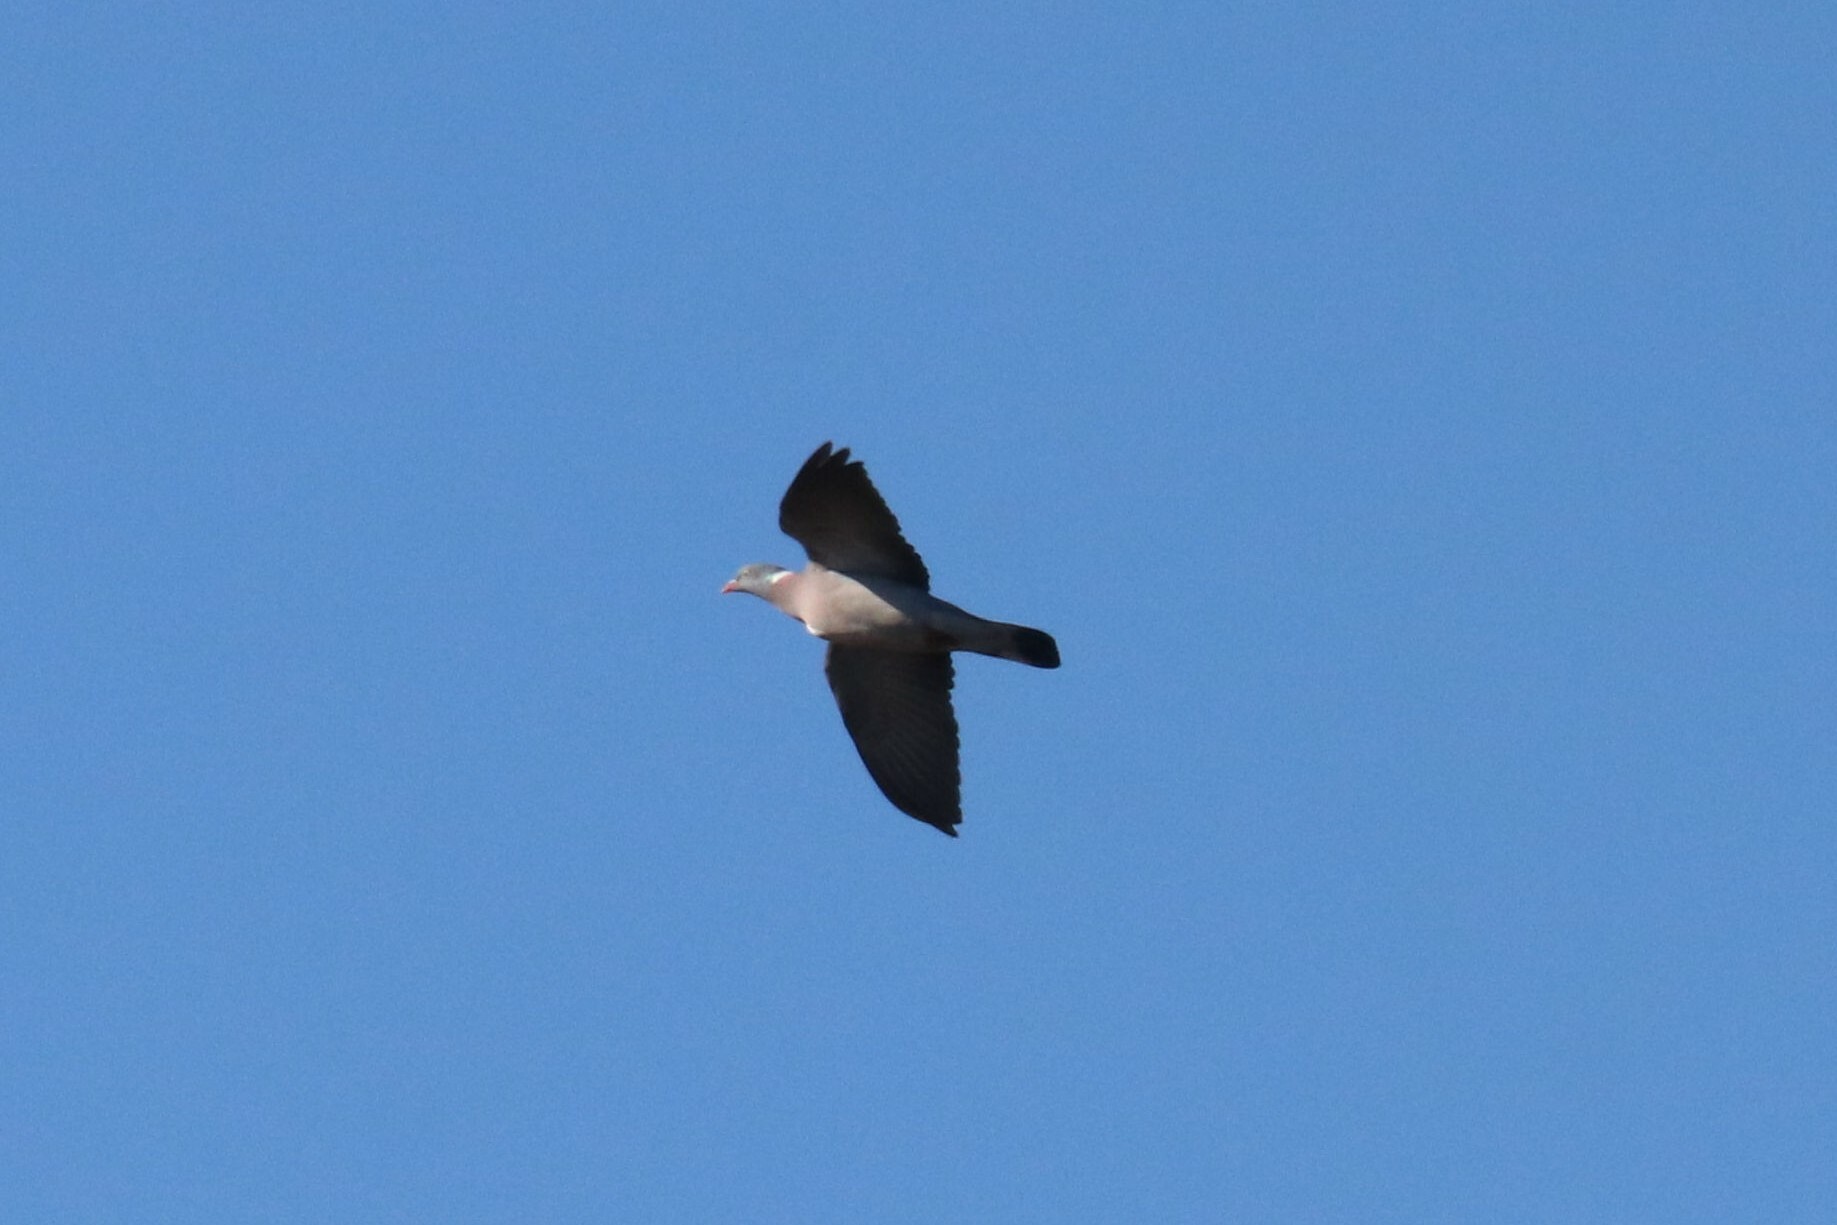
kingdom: Animalia
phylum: Chordata
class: Aves
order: Columbiformes
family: Columbidae
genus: Columba
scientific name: Columba palumbus
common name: Common wood pigeon
